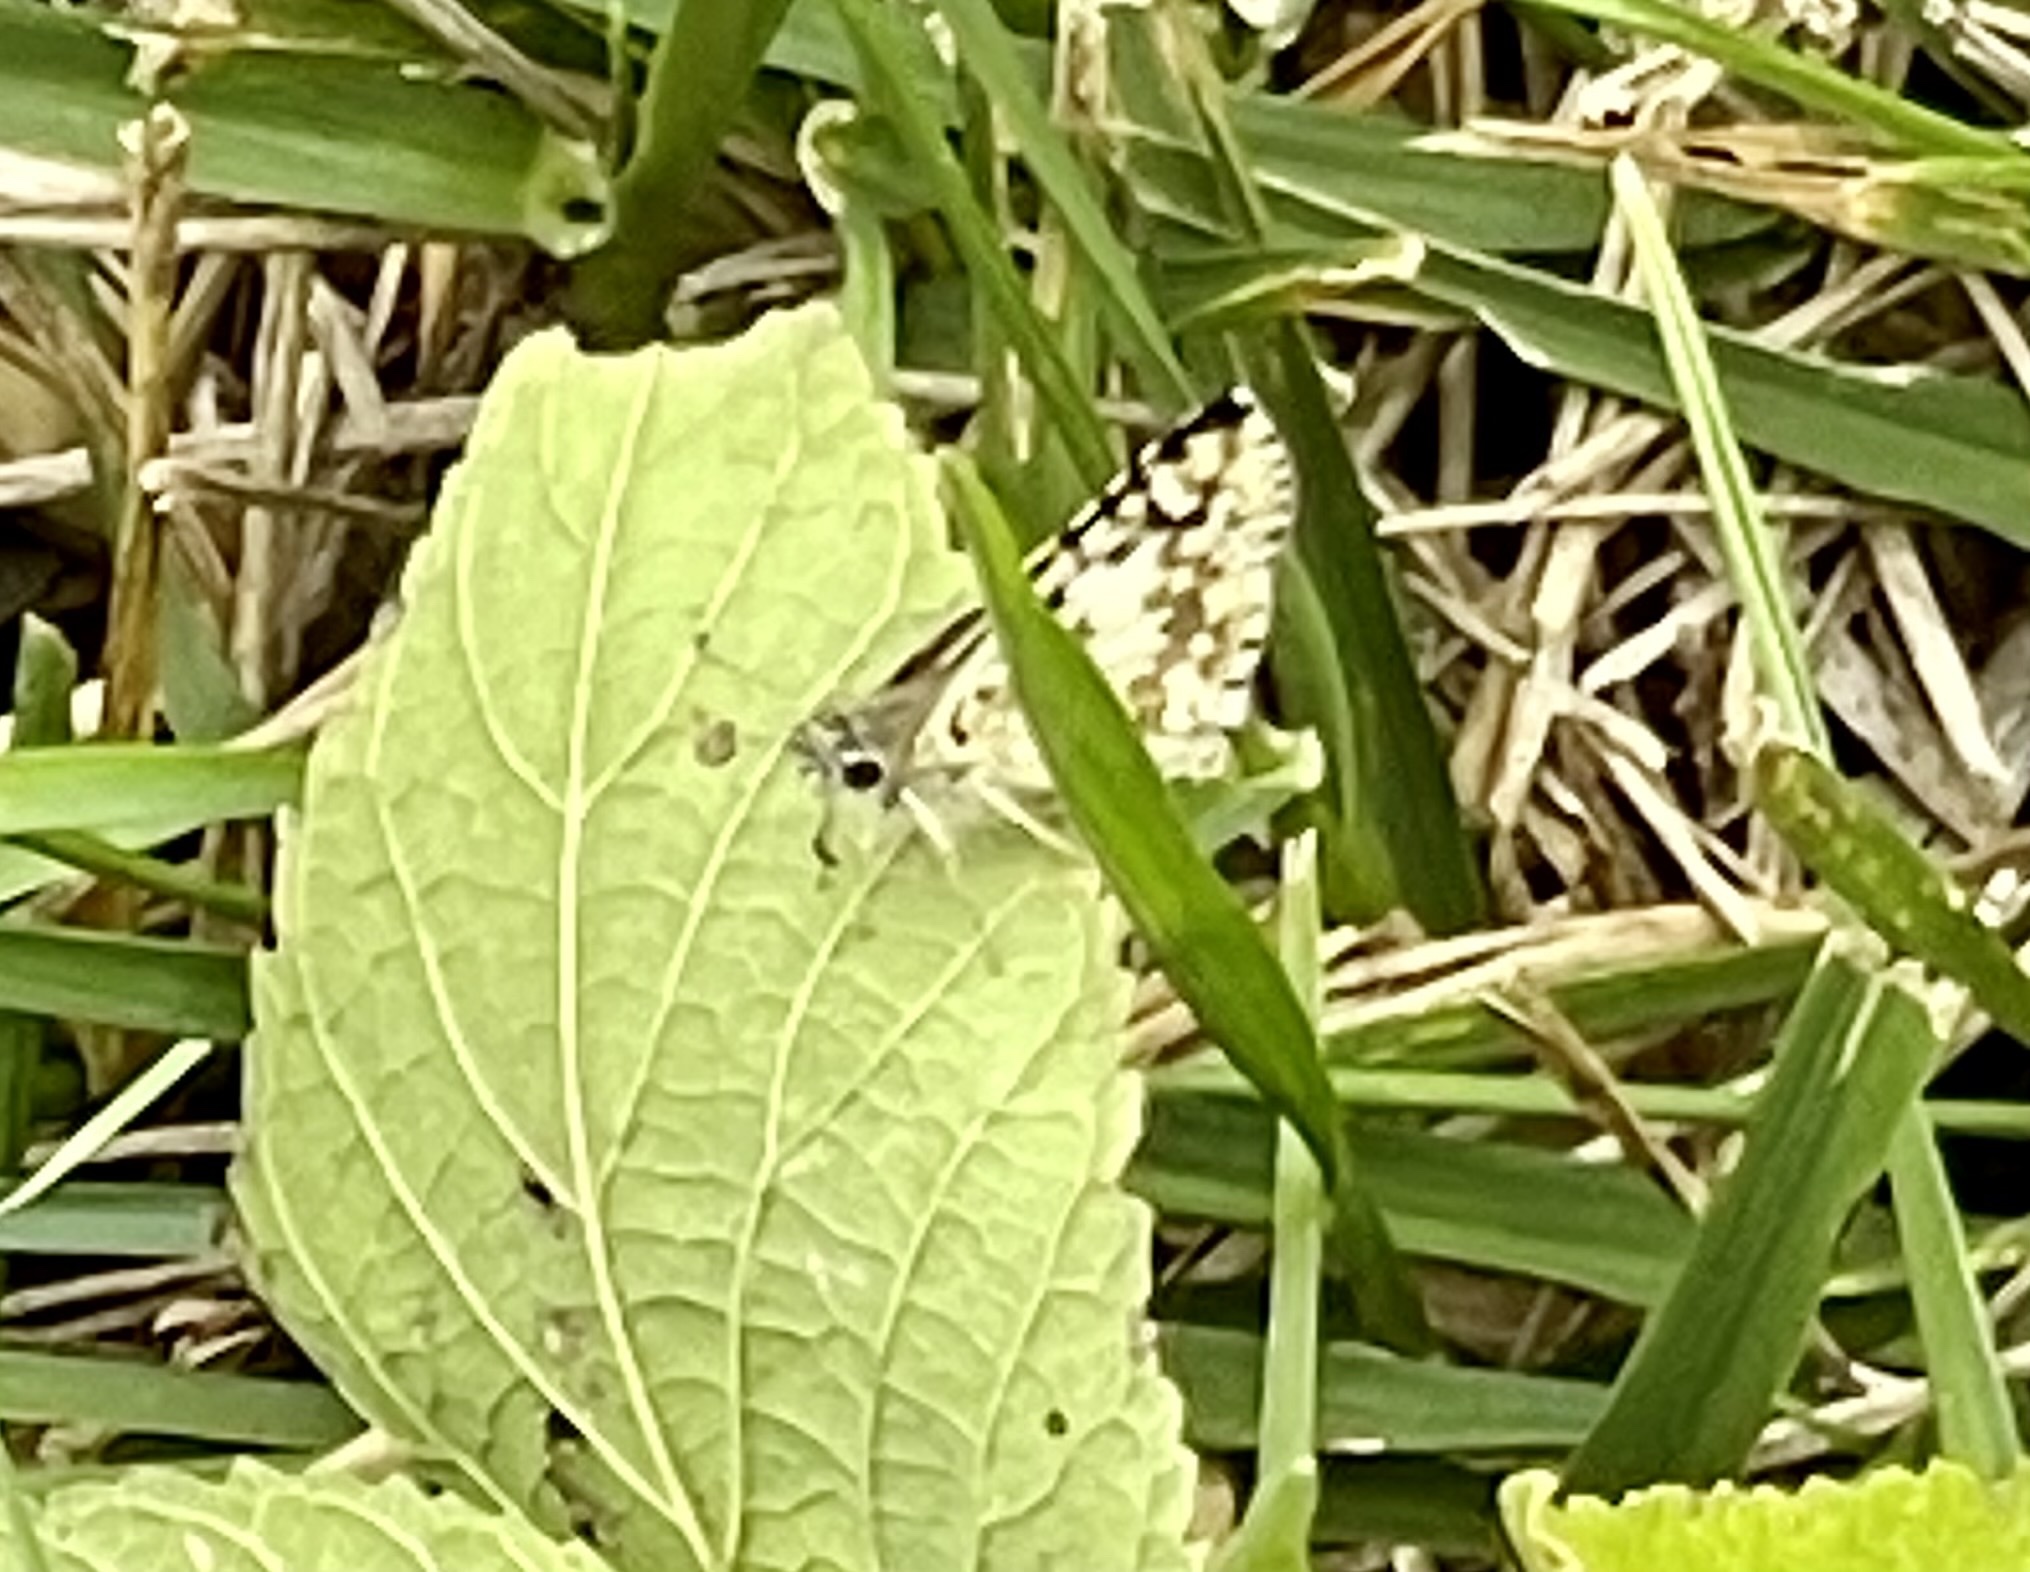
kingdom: Animalia
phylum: Arthropoda
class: Insecta
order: Lepidoptera
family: Hesperiidae
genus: Burnsius
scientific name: Burnsius communis
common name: Common checkered-skipper
